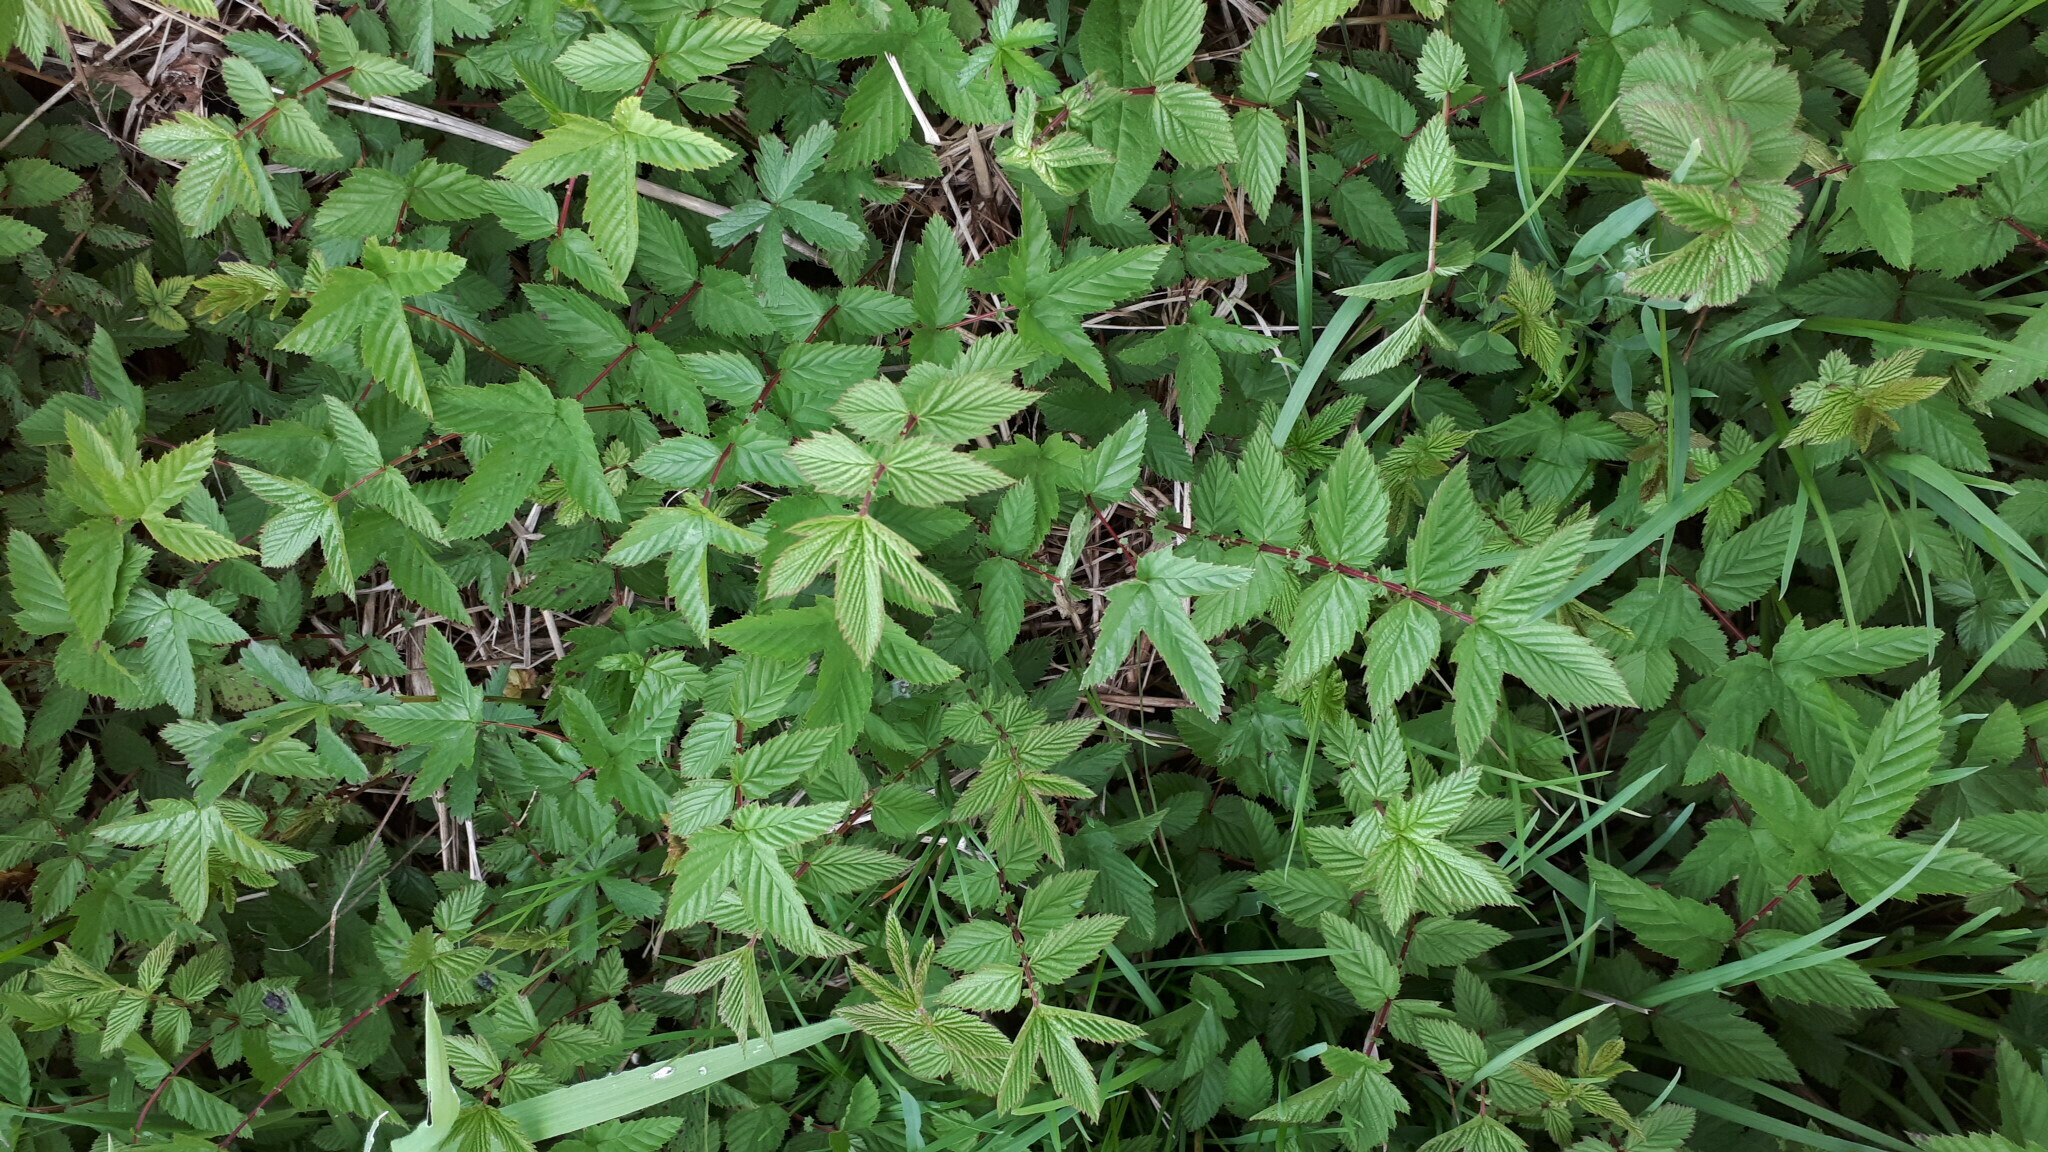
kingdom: Plantae
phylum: Tracheophyta
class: Magnoliopsida
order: Rosales
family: Rosaceae
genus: Filipendula
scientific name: Filipendula ulmaria
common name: Meadowsweet
